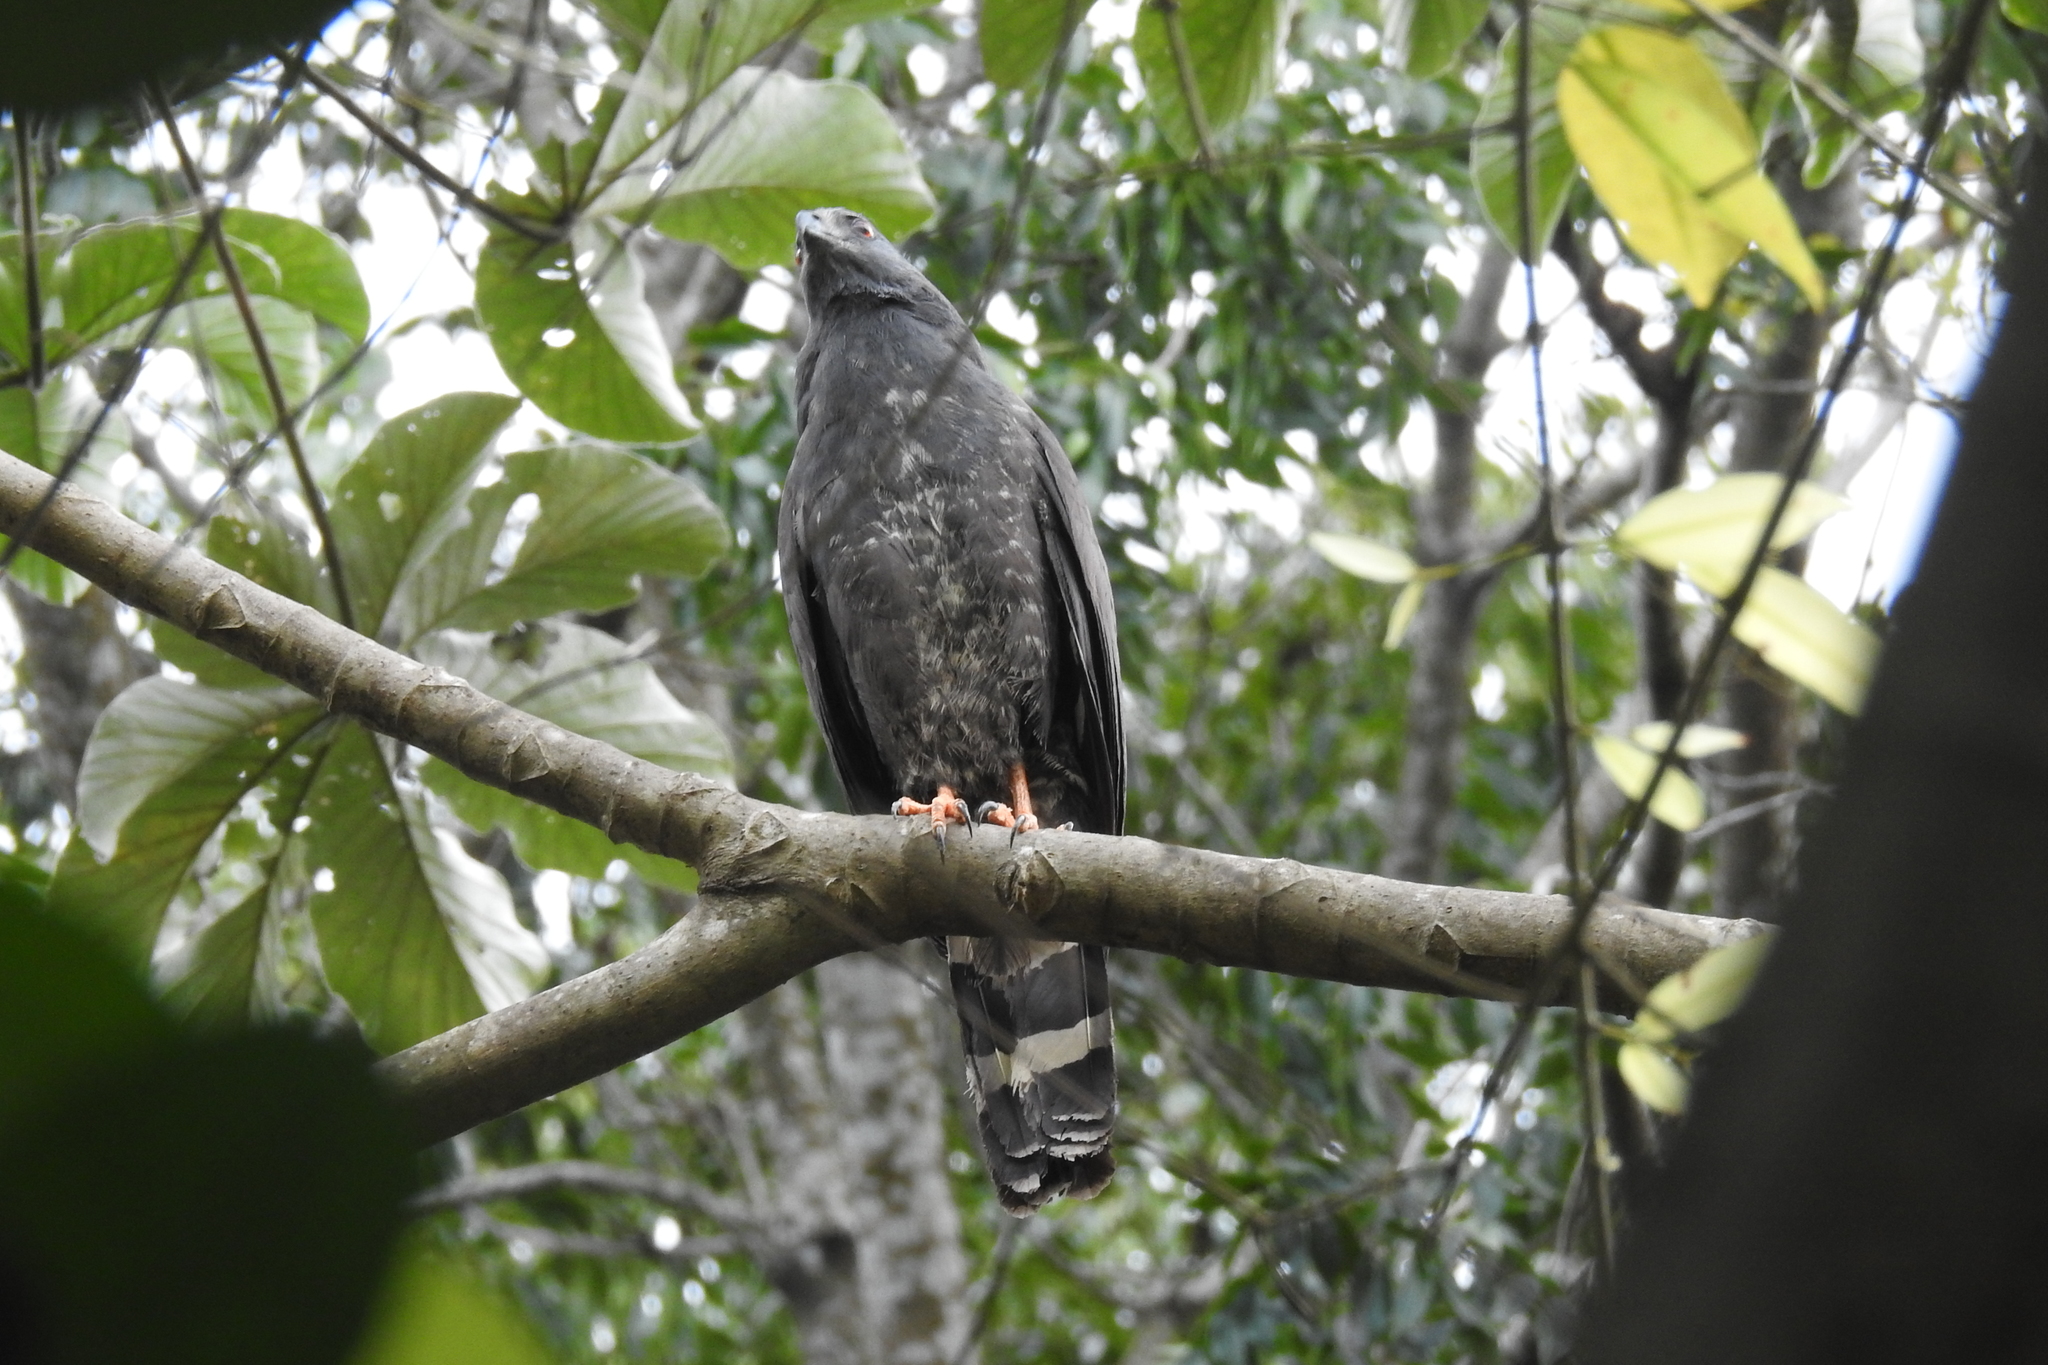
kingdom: Animalia
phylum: Chordata
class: Aves
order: Accipitriformes
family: Accipitridae
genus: Geranospiza
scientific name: Geranospiza caerulescens
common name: Crane hawk
